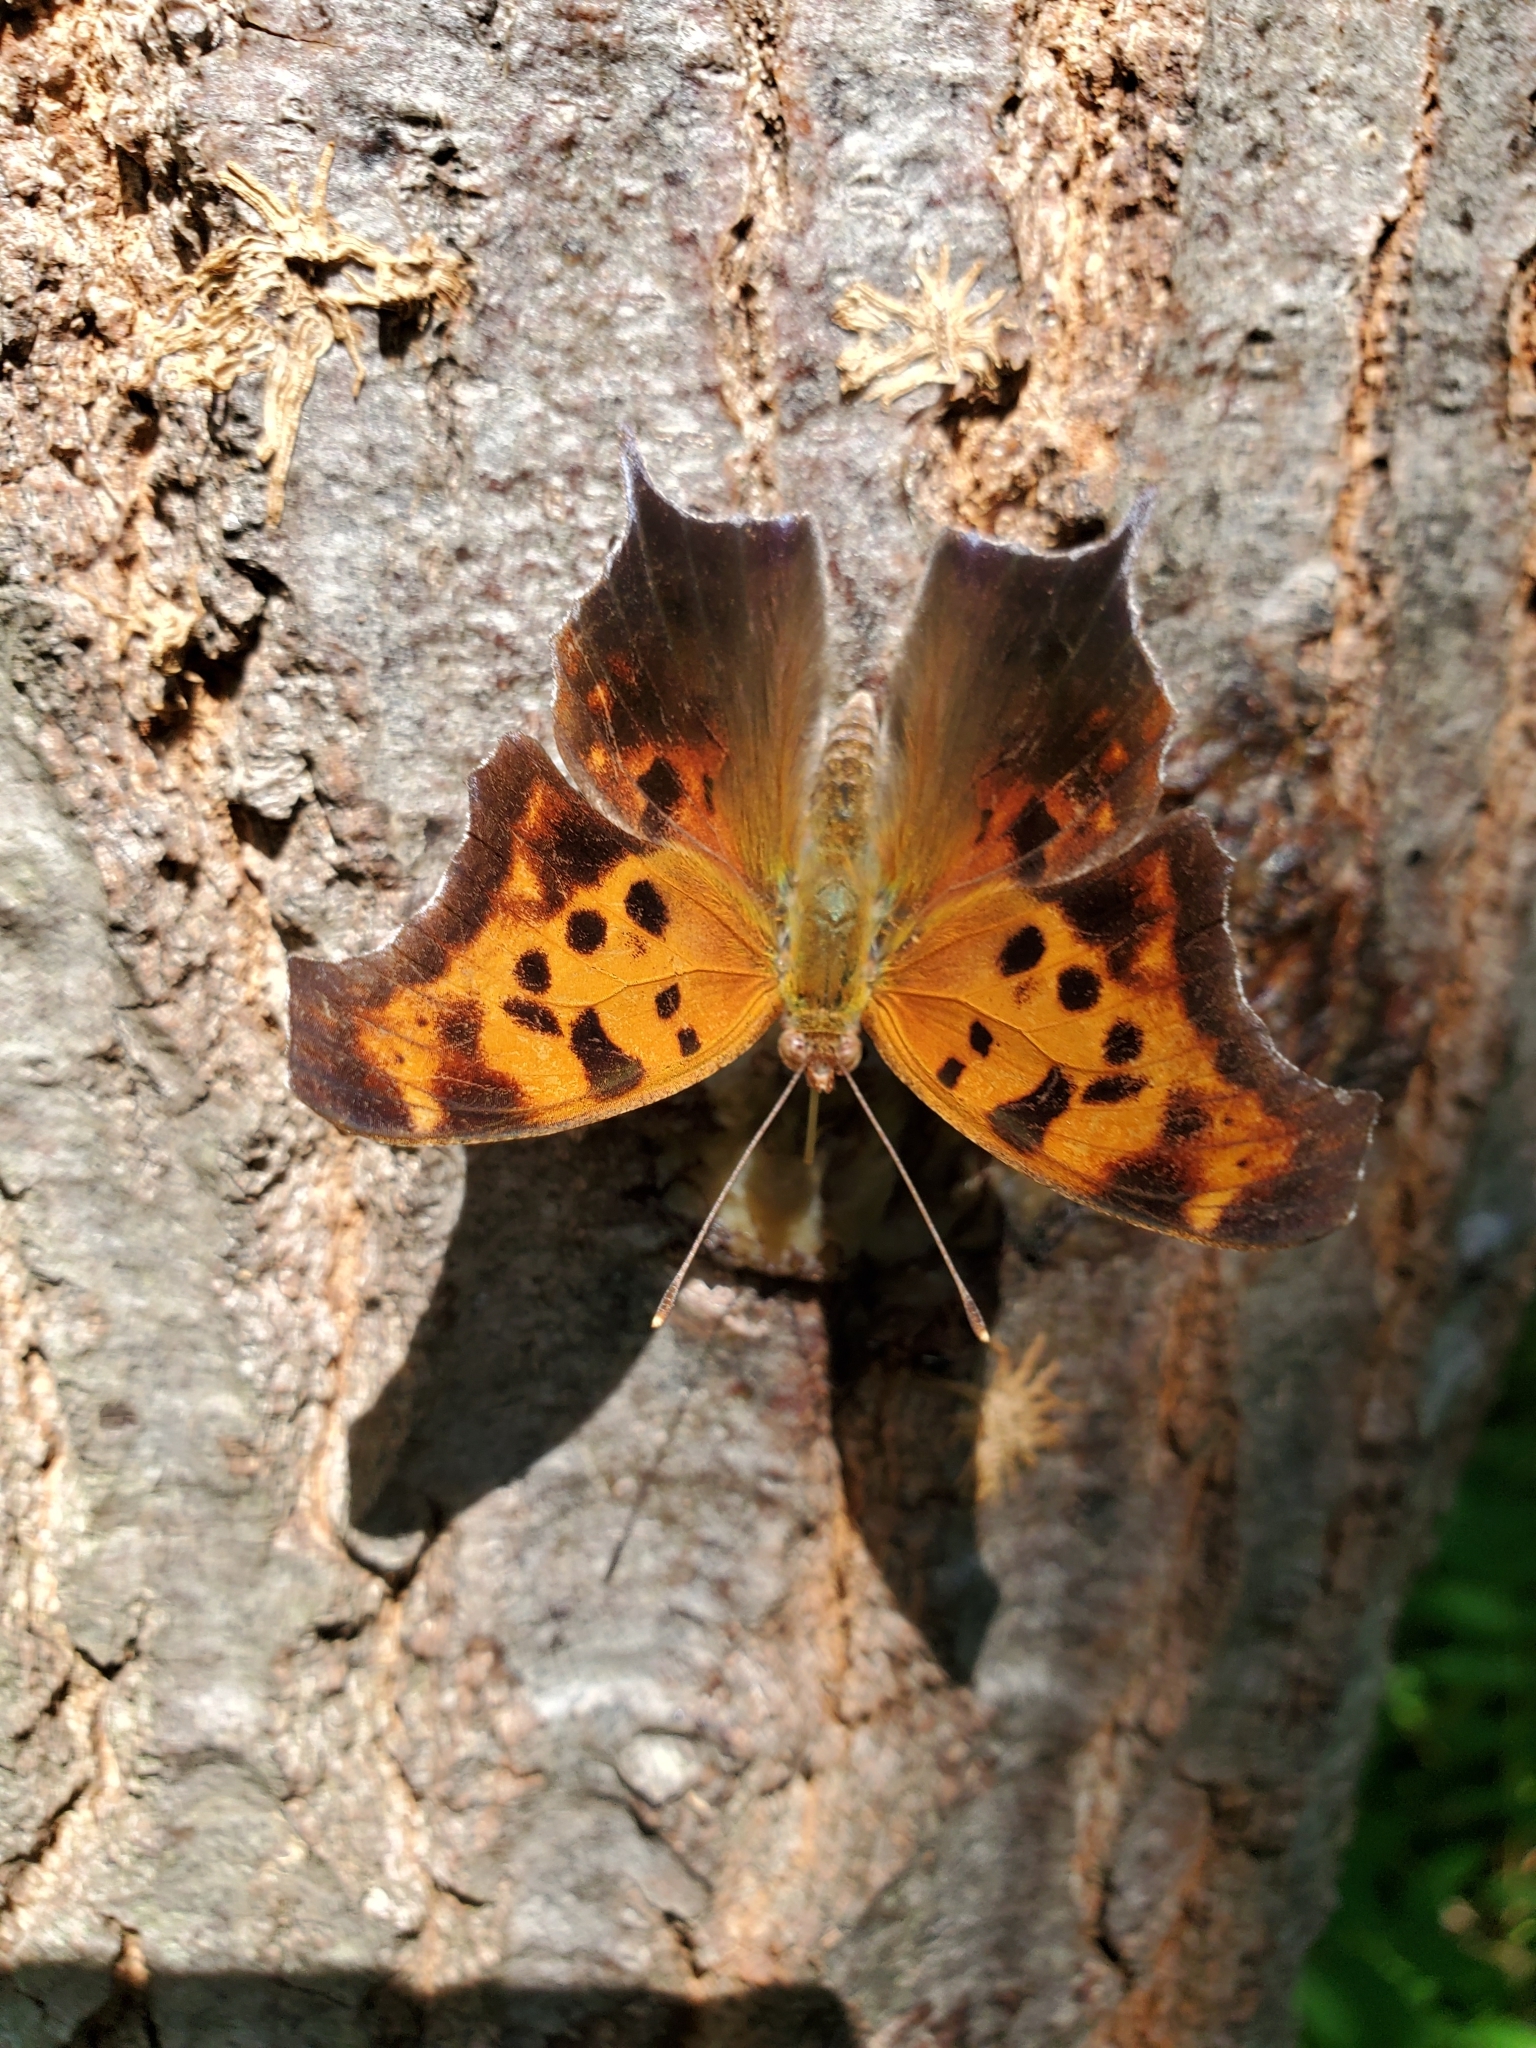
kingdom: Animalia
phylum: Arthropoda
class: Insecta
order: Lepidoptera
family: Nymphalidae
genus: Polygonia
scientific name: Polygonia interrogationis
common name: Question mark
